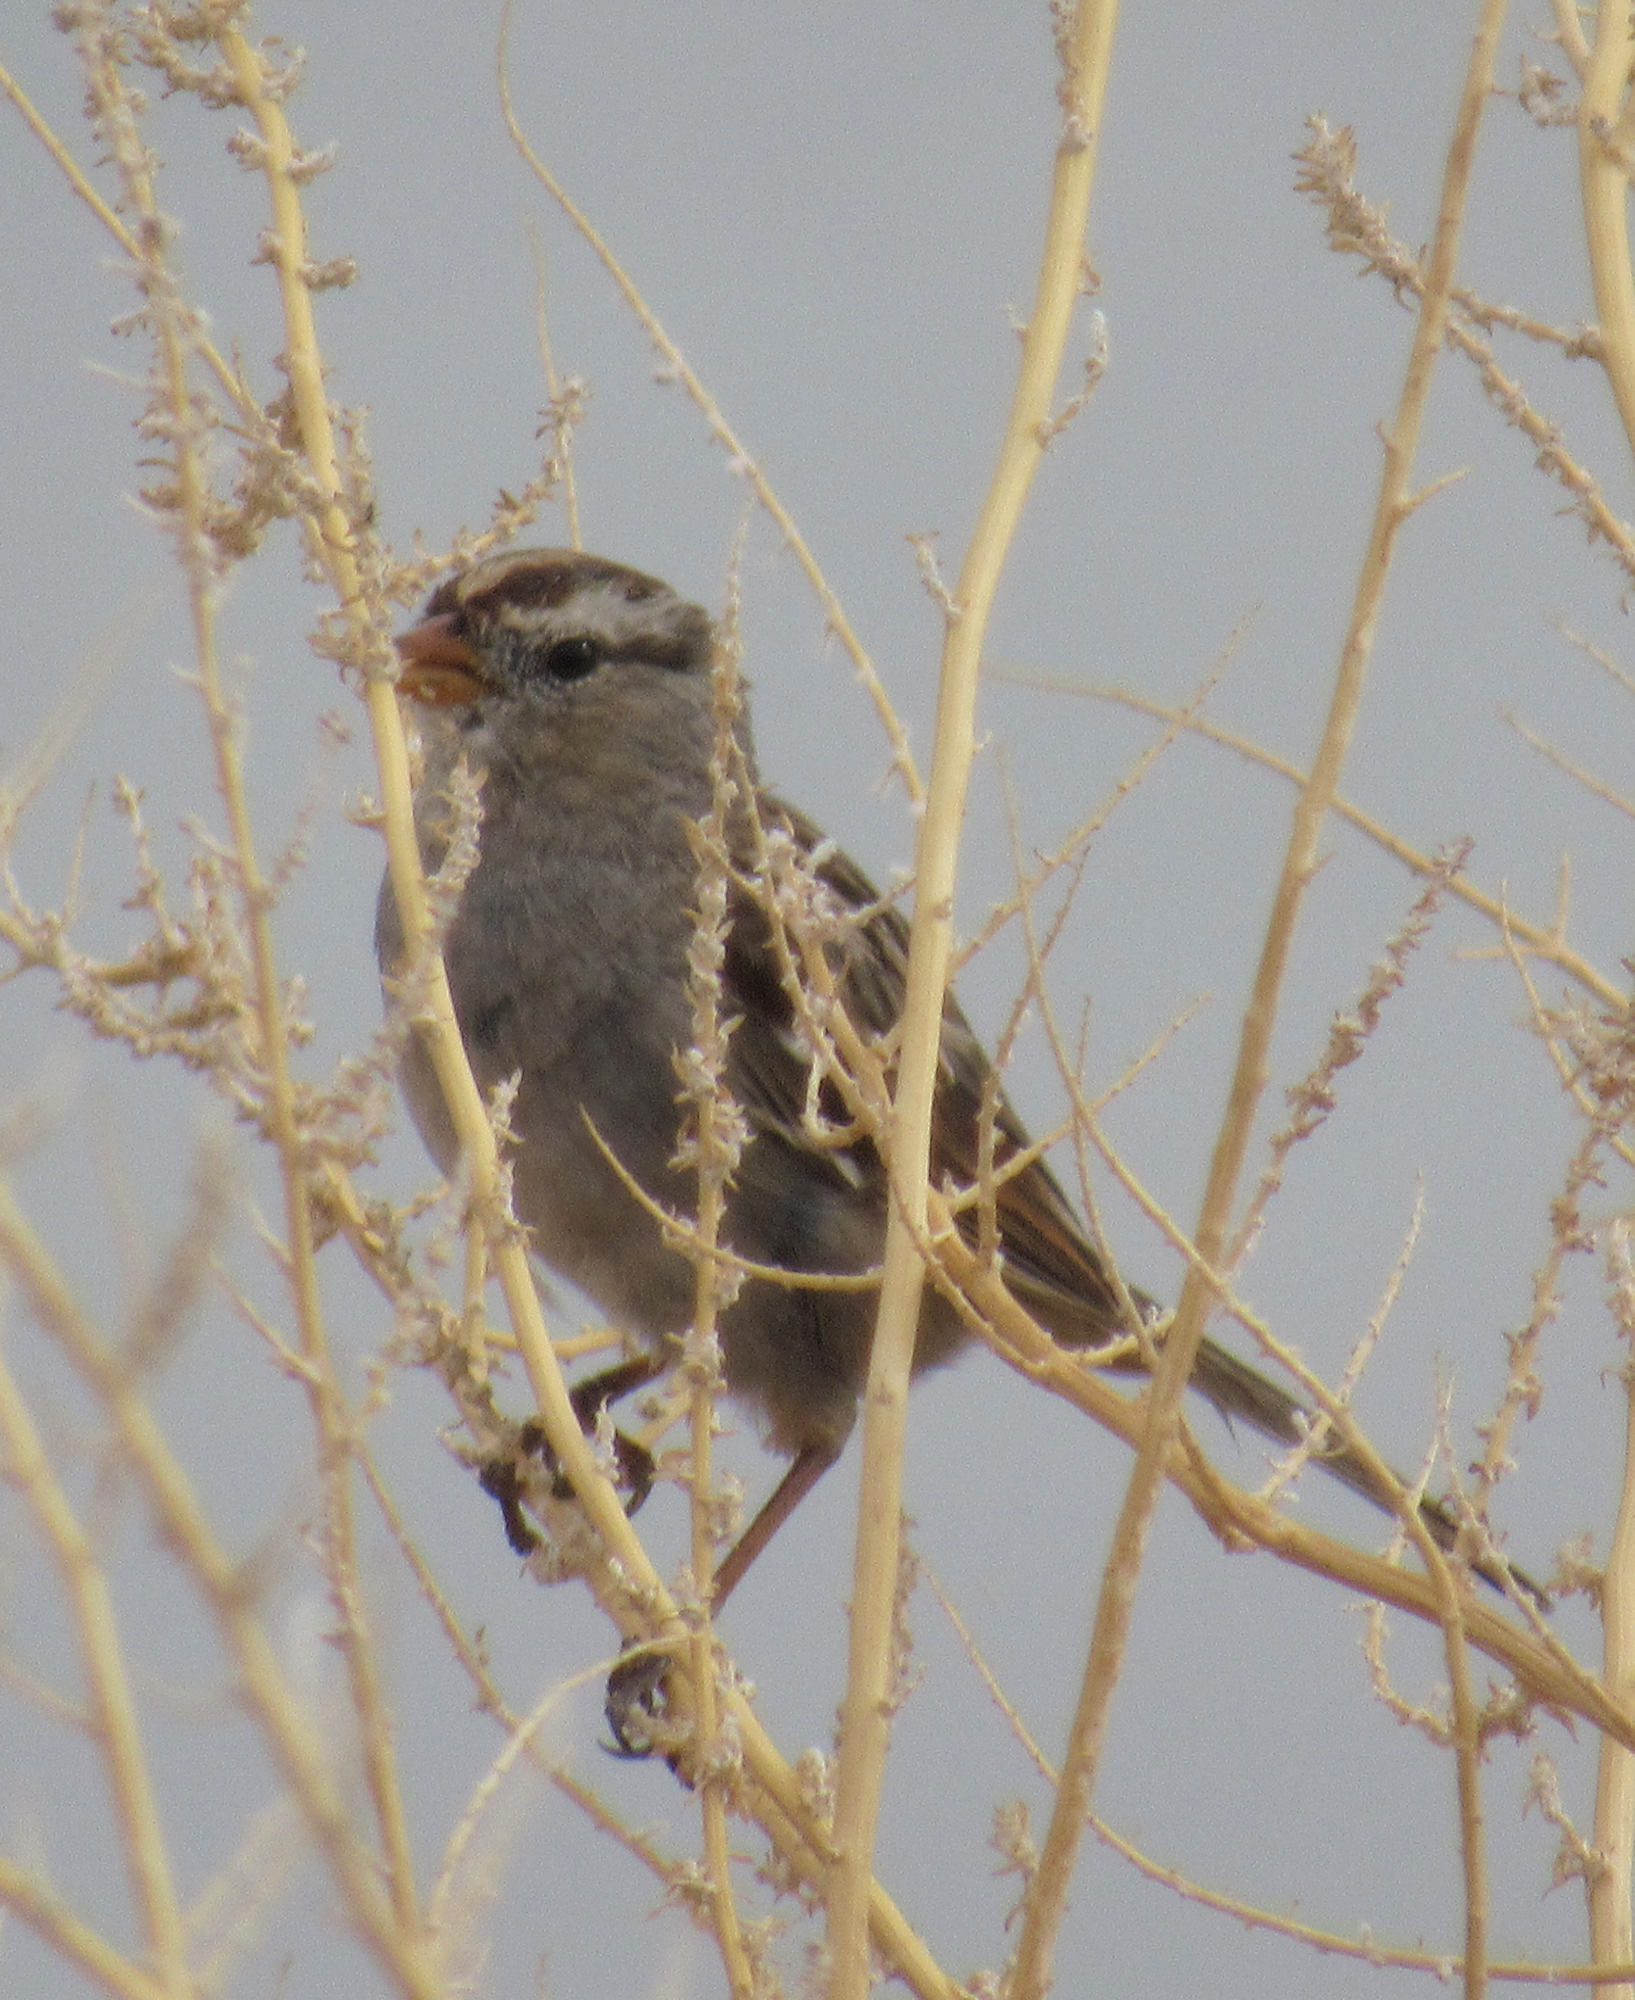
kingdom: Animalia
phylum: Chordata
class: Aves
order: Passeriformes
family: Passerellidae
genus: Zonotrichia
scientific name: Zonotrichia leucophrys
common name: White-crowned sparrow
